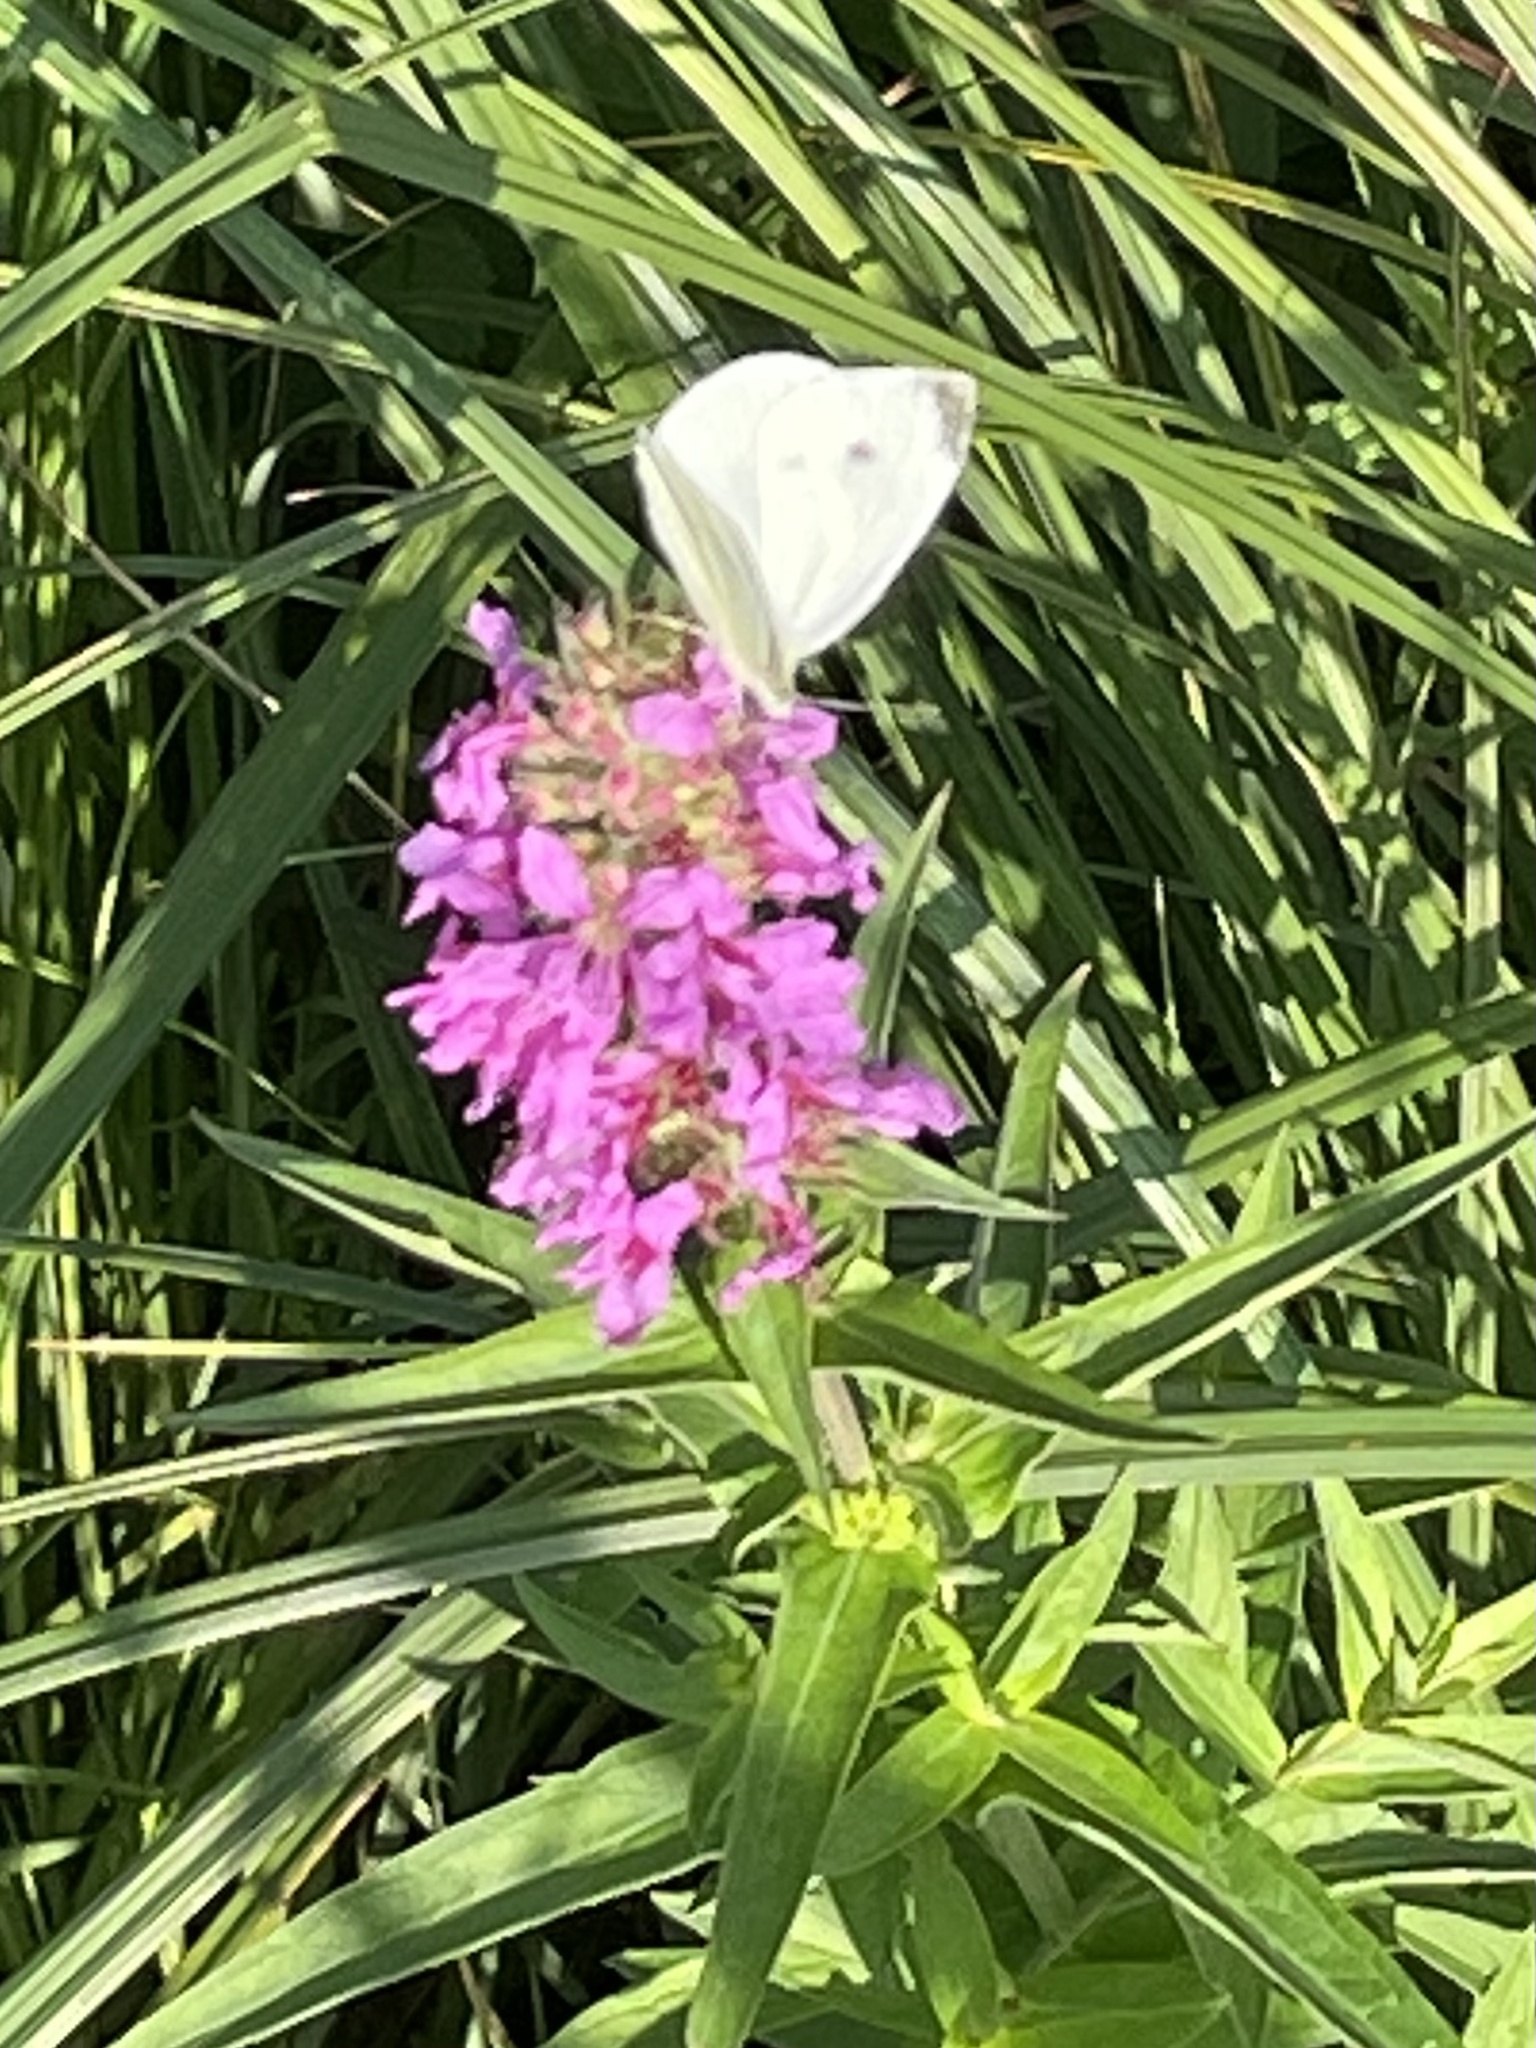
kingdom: Animalia
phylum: Arthropoda
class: Insecta
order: Lepidoptera
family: Pieridae
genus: Pieris
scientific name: Pieris rapae
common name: Small white
